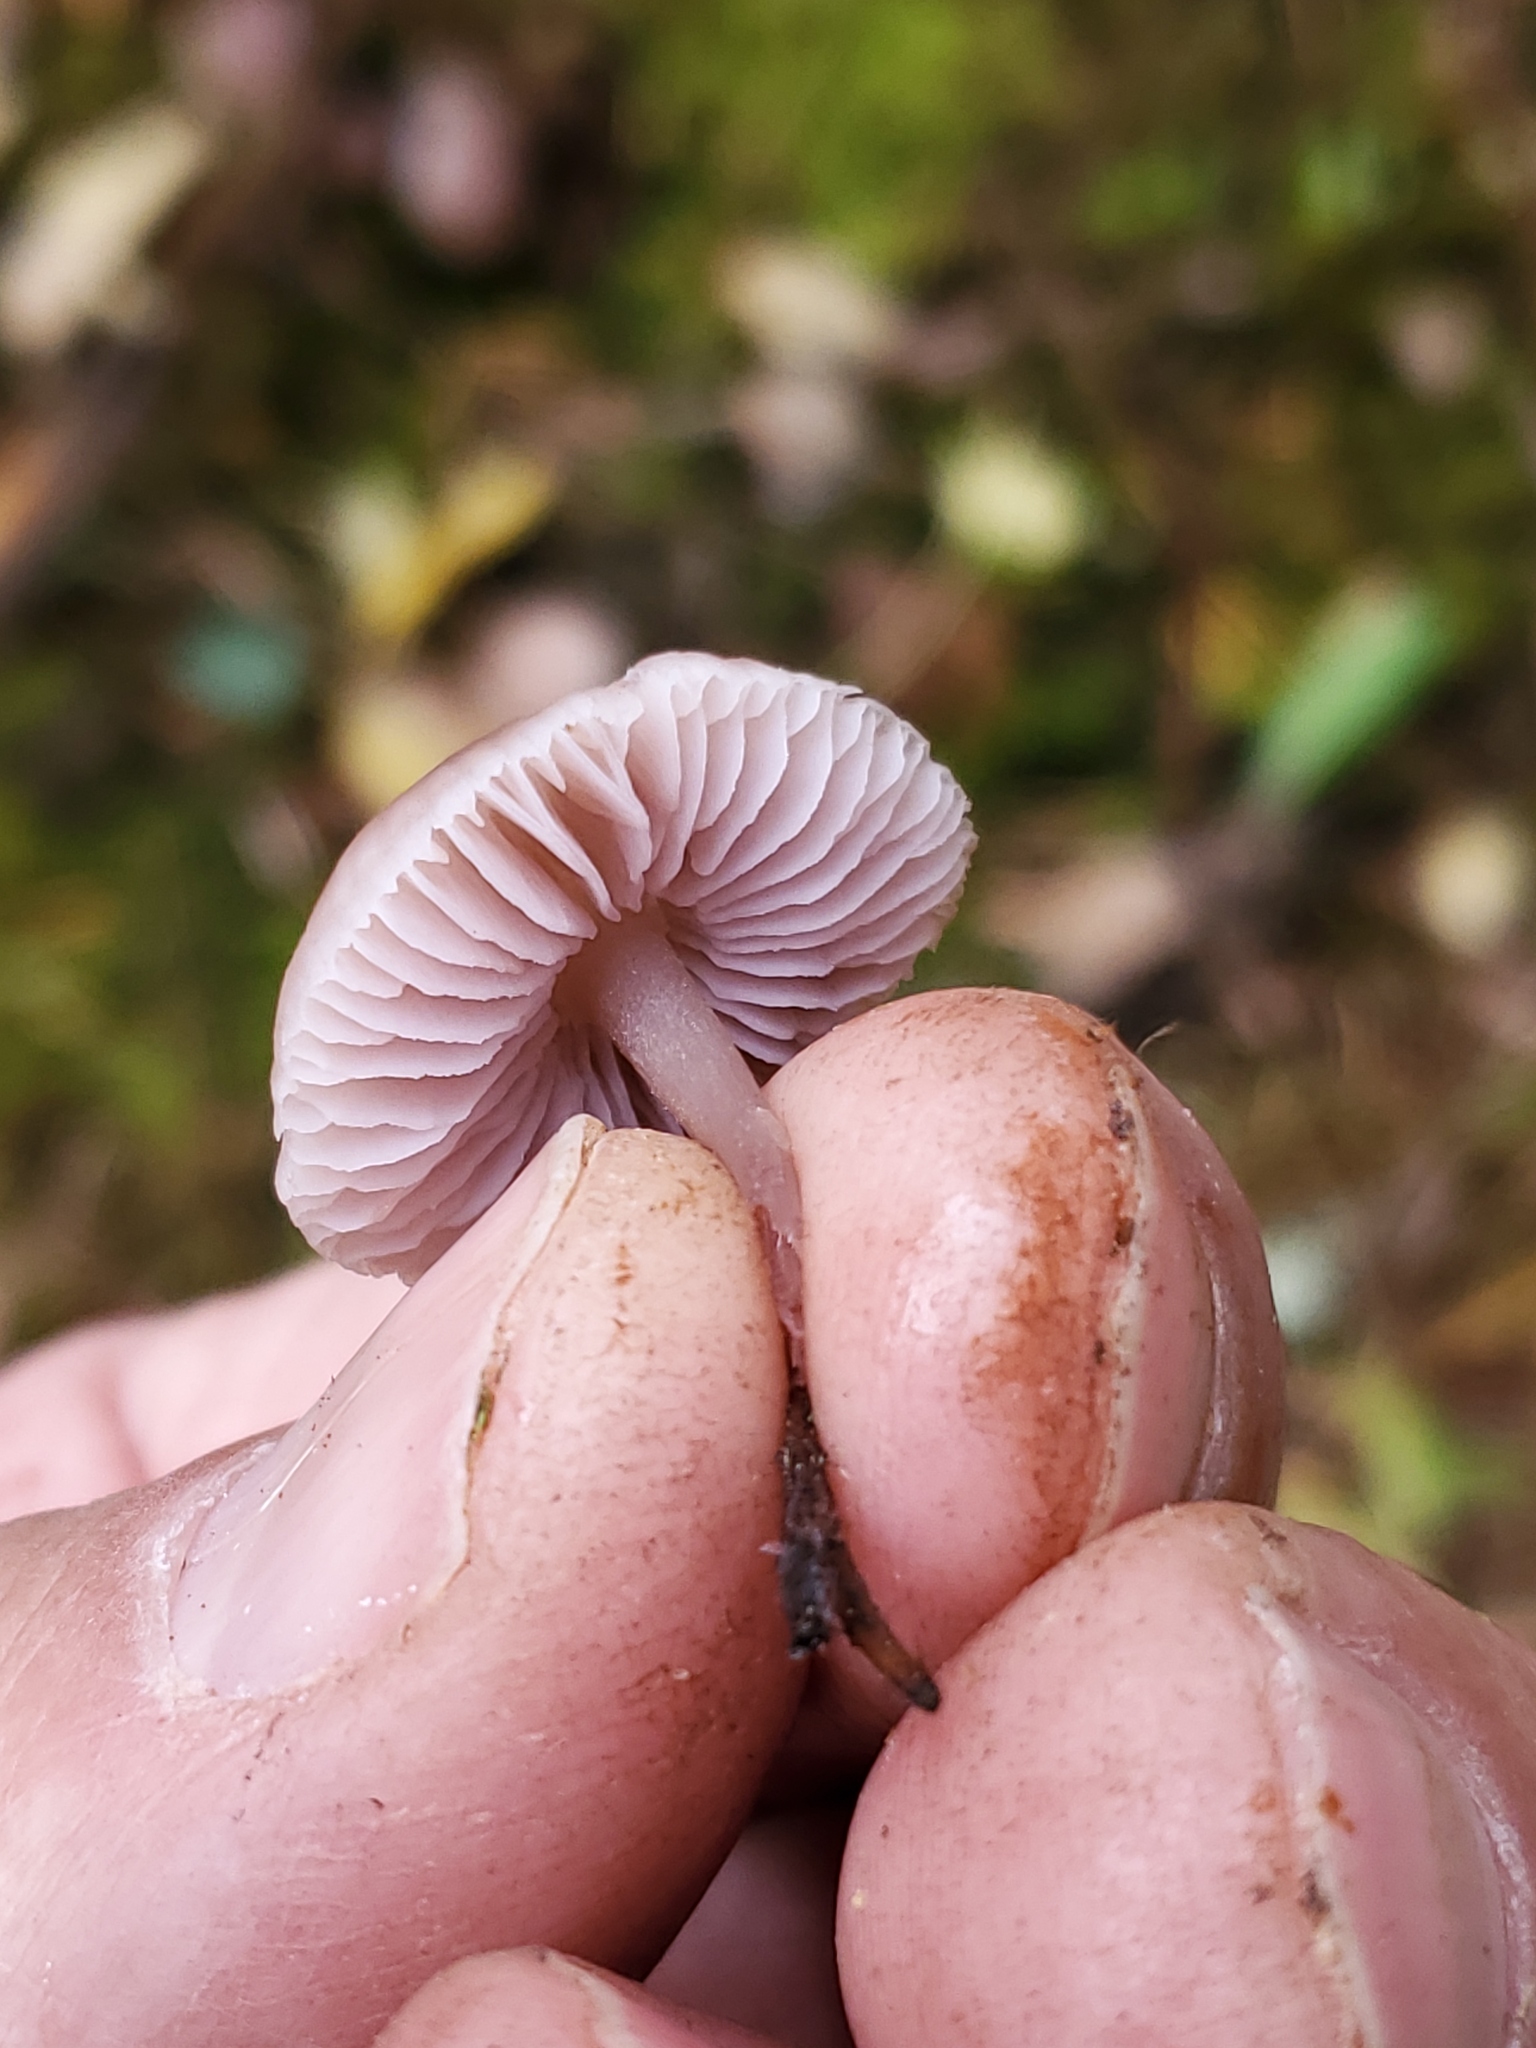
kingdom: Fungi
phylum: Basidiomycota
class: Agaricomycetes
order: Agaricales
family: Mycenaceae
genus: Mycena
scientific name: Mycena pura
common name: Lilac bonnet
